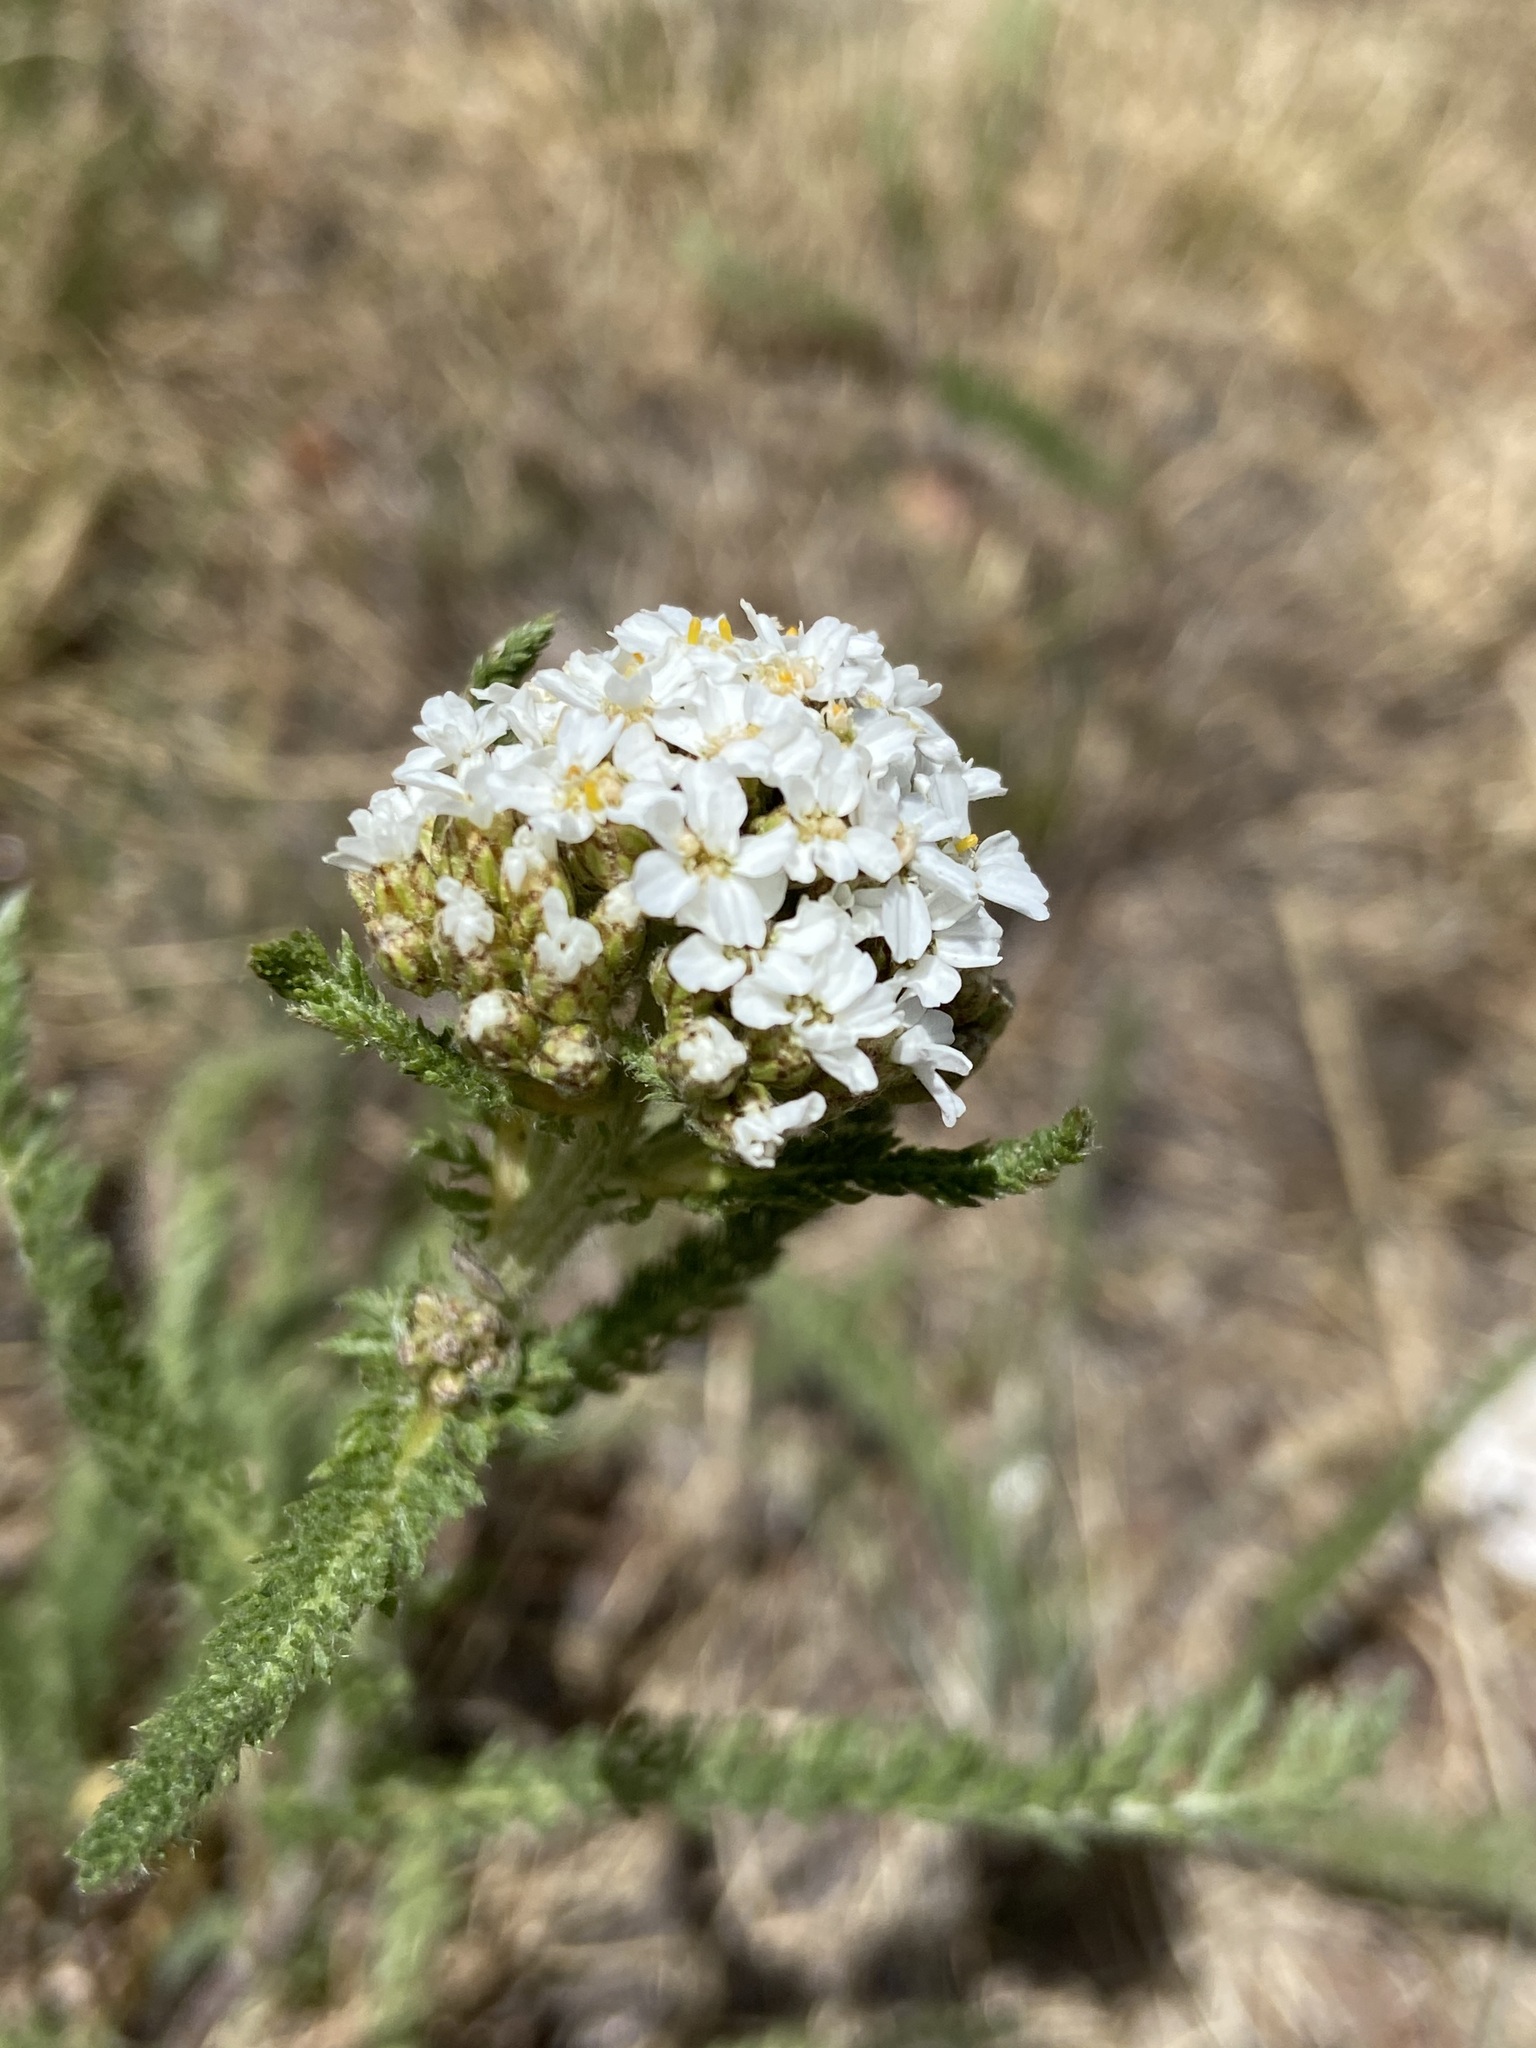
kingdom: Plantae
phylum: Tracheophyta
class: Magnoliopsida
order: Asterales
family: Asteraceae
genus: Achillea
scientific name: Achillea millefolium
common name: Yarrow
